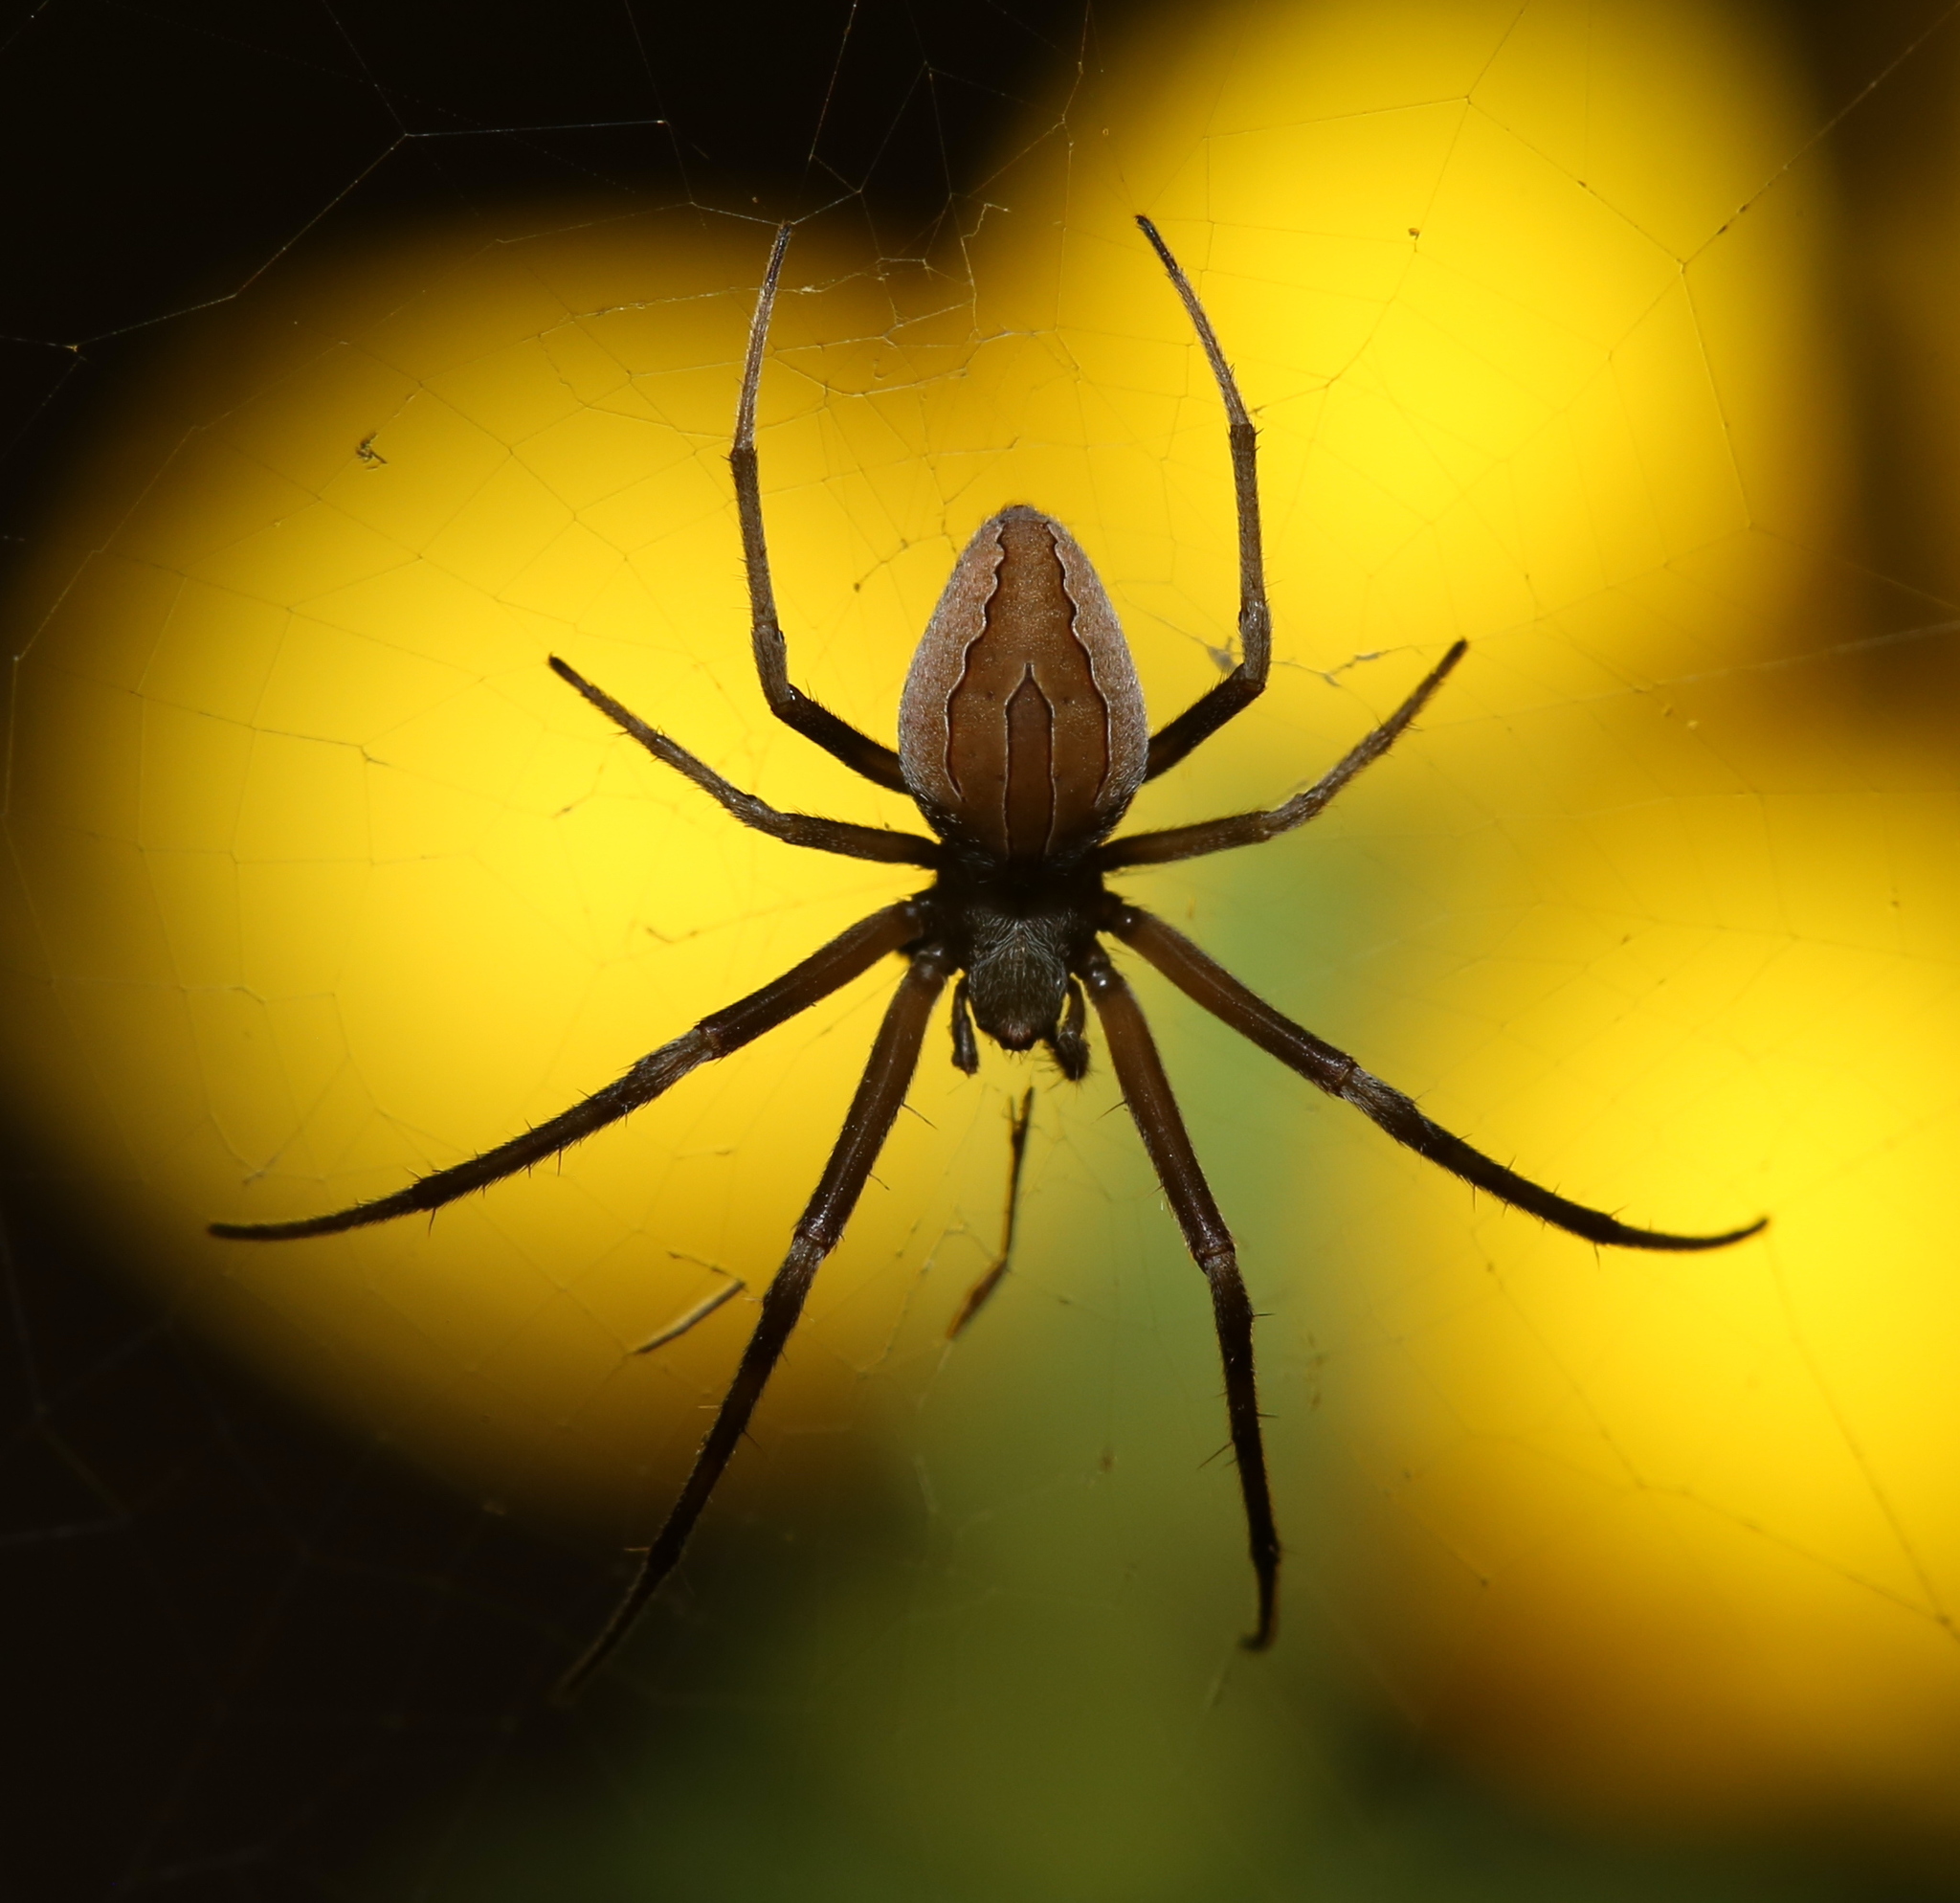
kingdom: Animalia
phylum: Arthropoda
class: Arachnida
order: Araneae
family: Araneidae
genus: Acacesia
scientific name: Acacesia hamata
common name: Orb weavers
